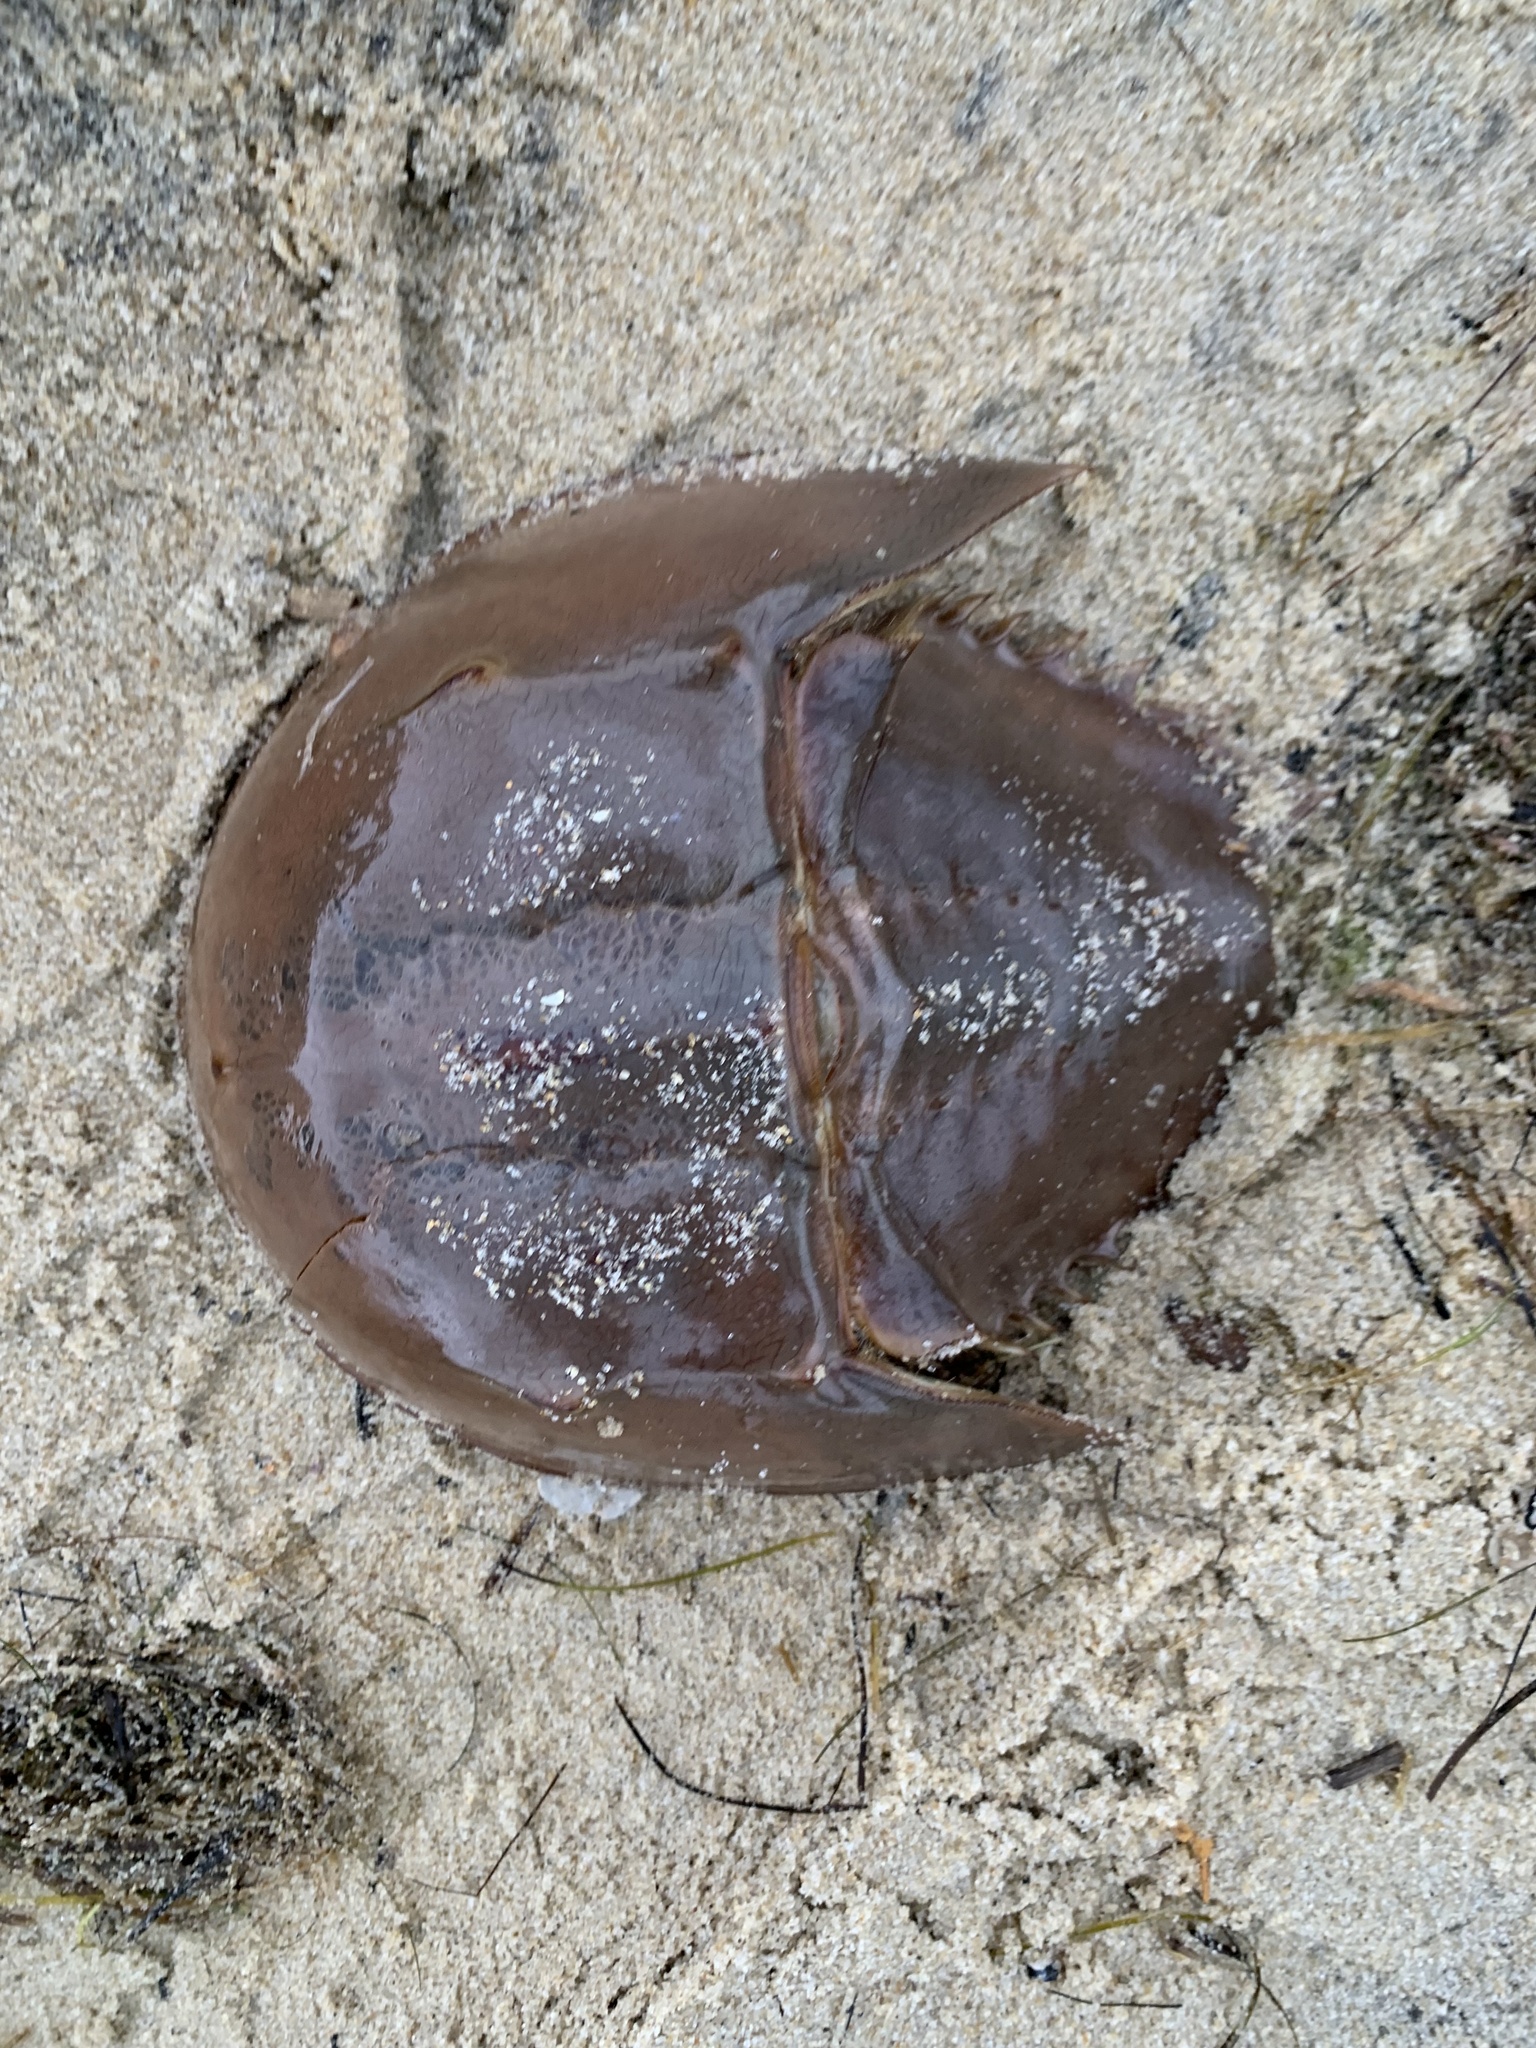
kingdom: Animalia
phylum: Arthropoda
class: Merostomata
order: Xiphosurida
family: Limulidae
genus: Limulus
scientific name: Limulus polyphemus
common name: Horseshoe crab
